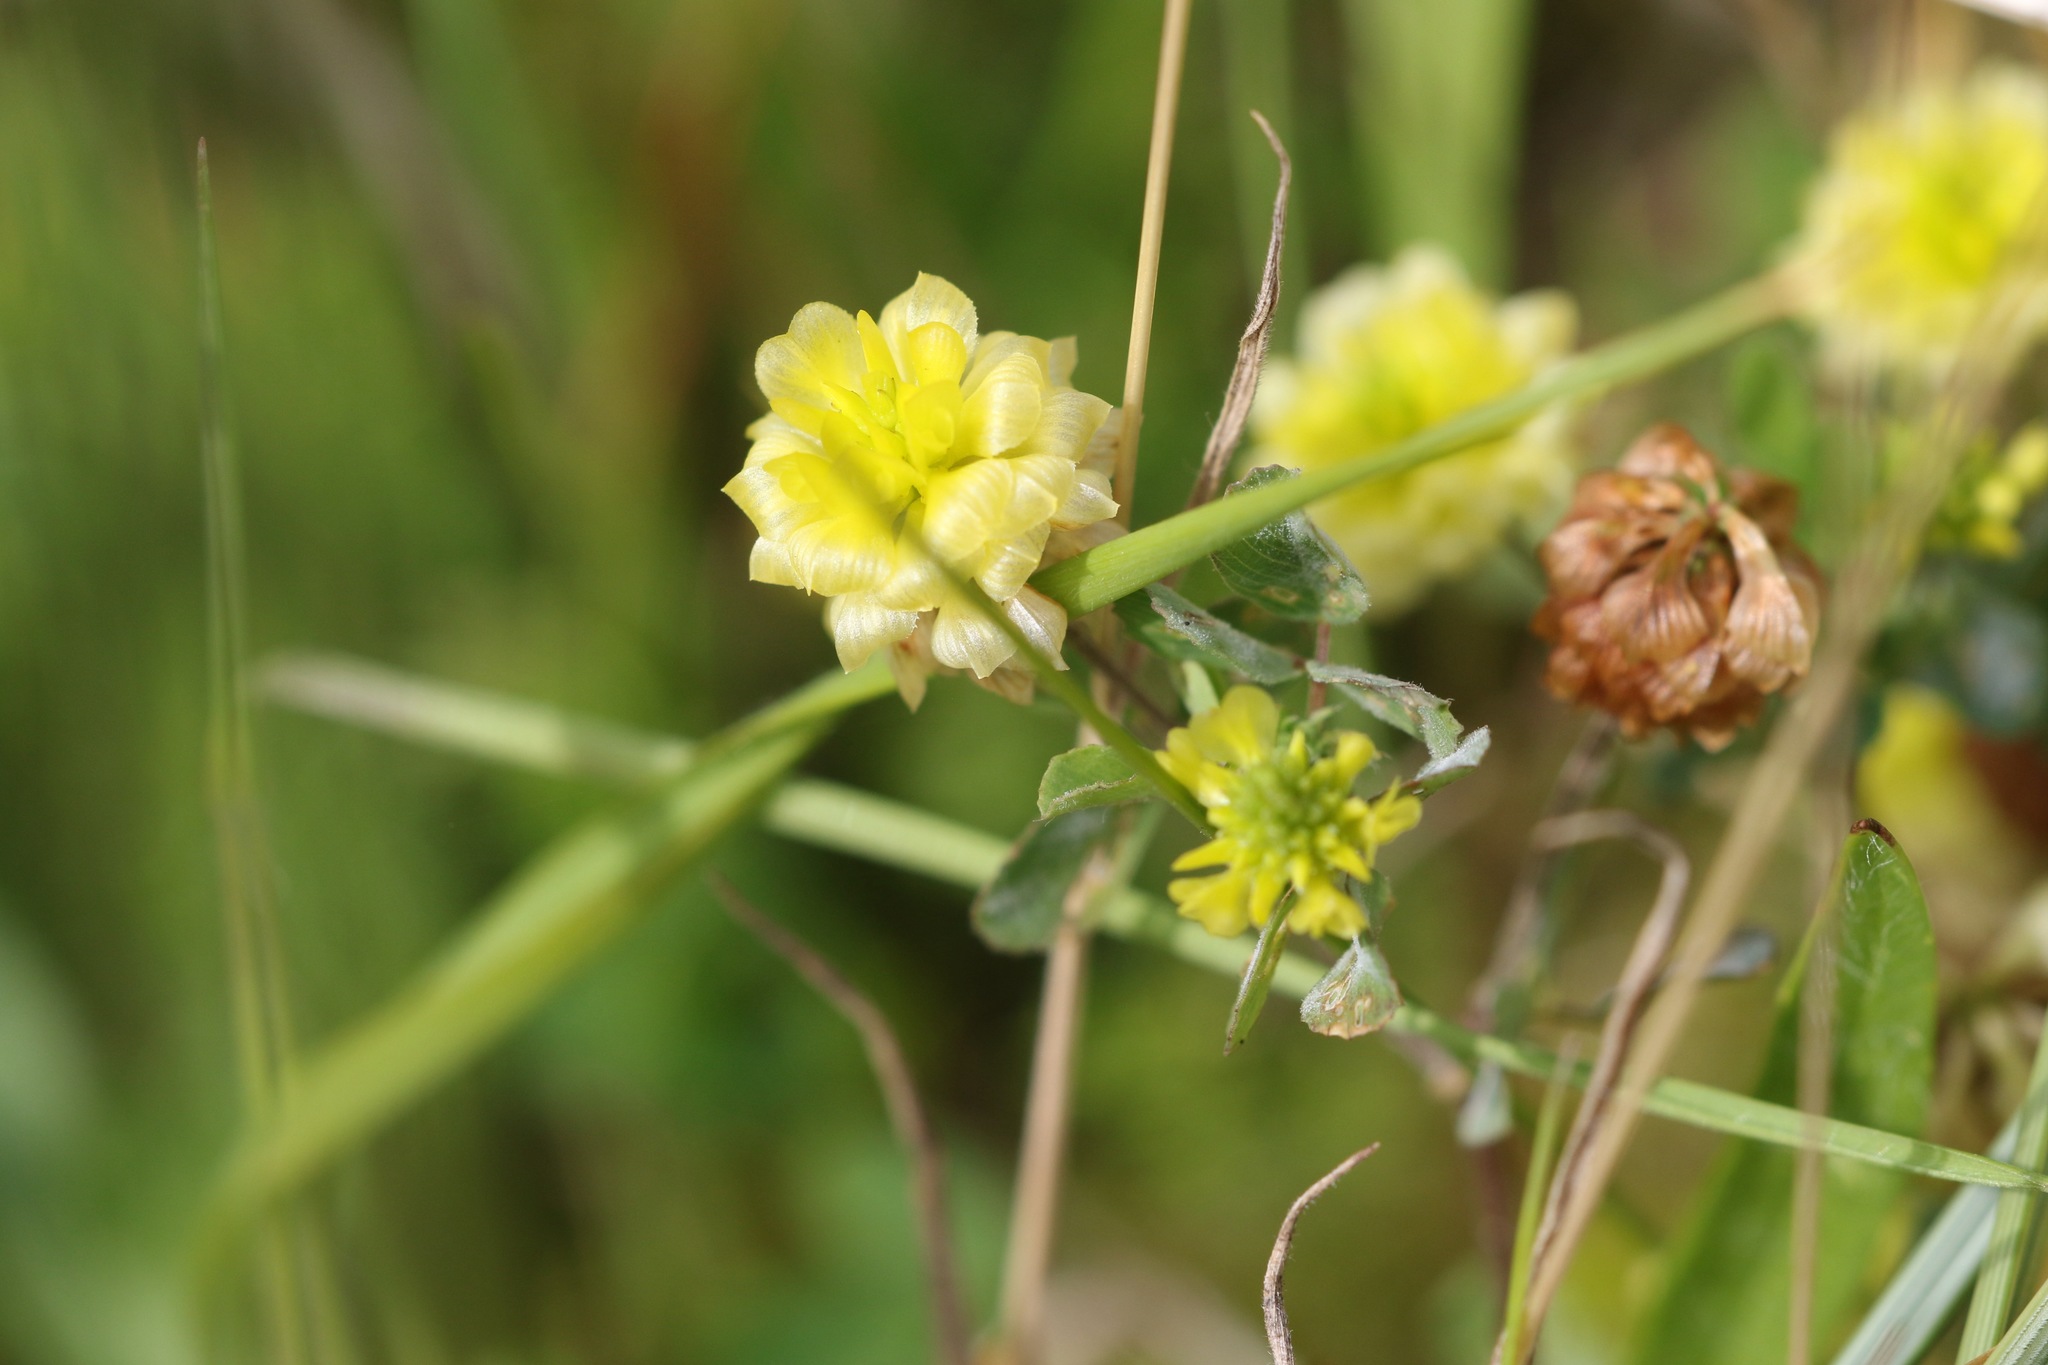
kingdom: Plantae
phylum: Tracheophyta
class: Magnoliopsida
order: Fabales
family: Fabaceae
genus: Trifolium
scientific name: Trifolium campestre
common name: Field clover
